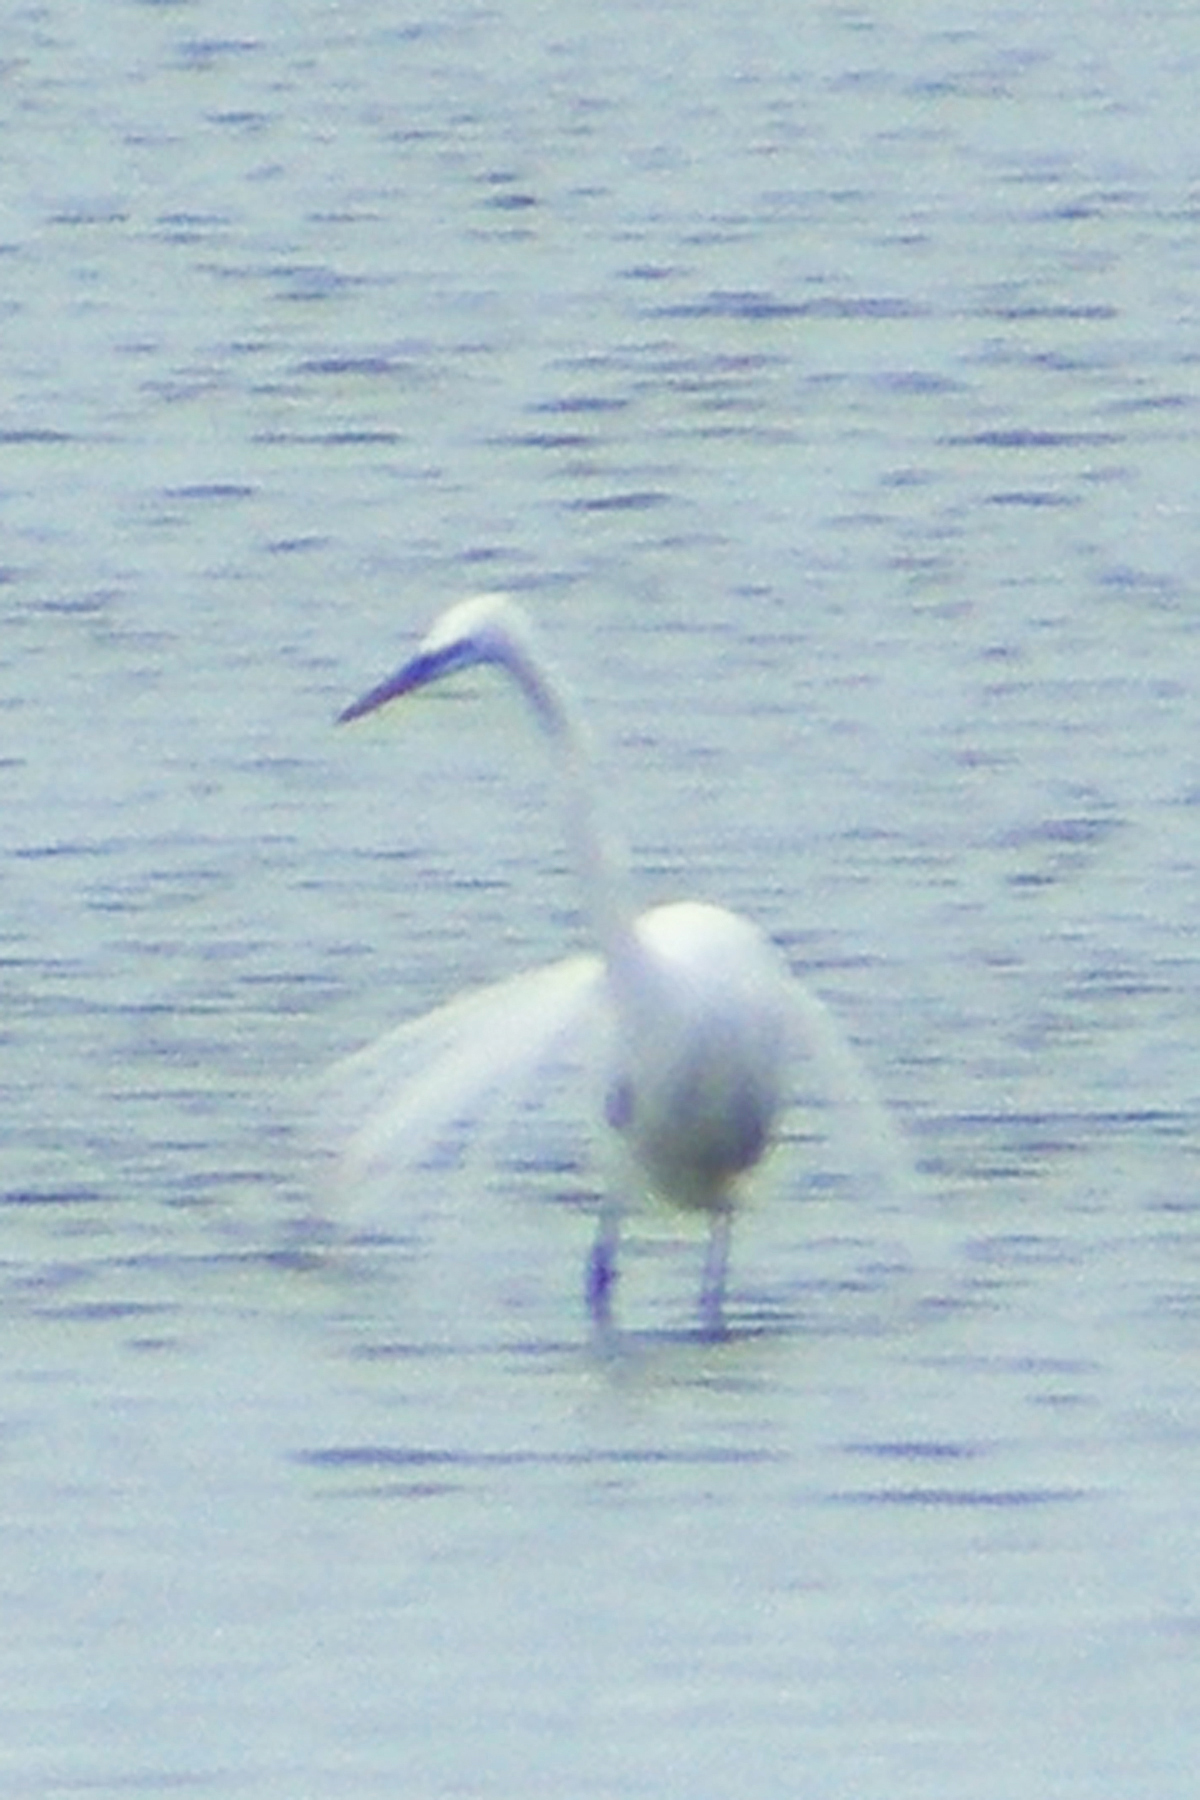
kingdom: Animalia
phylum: Chordata
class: Aves
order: Pelecaniformes
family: Ardeidae
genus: Ardea
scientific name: Ardea alba
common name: Great egret
